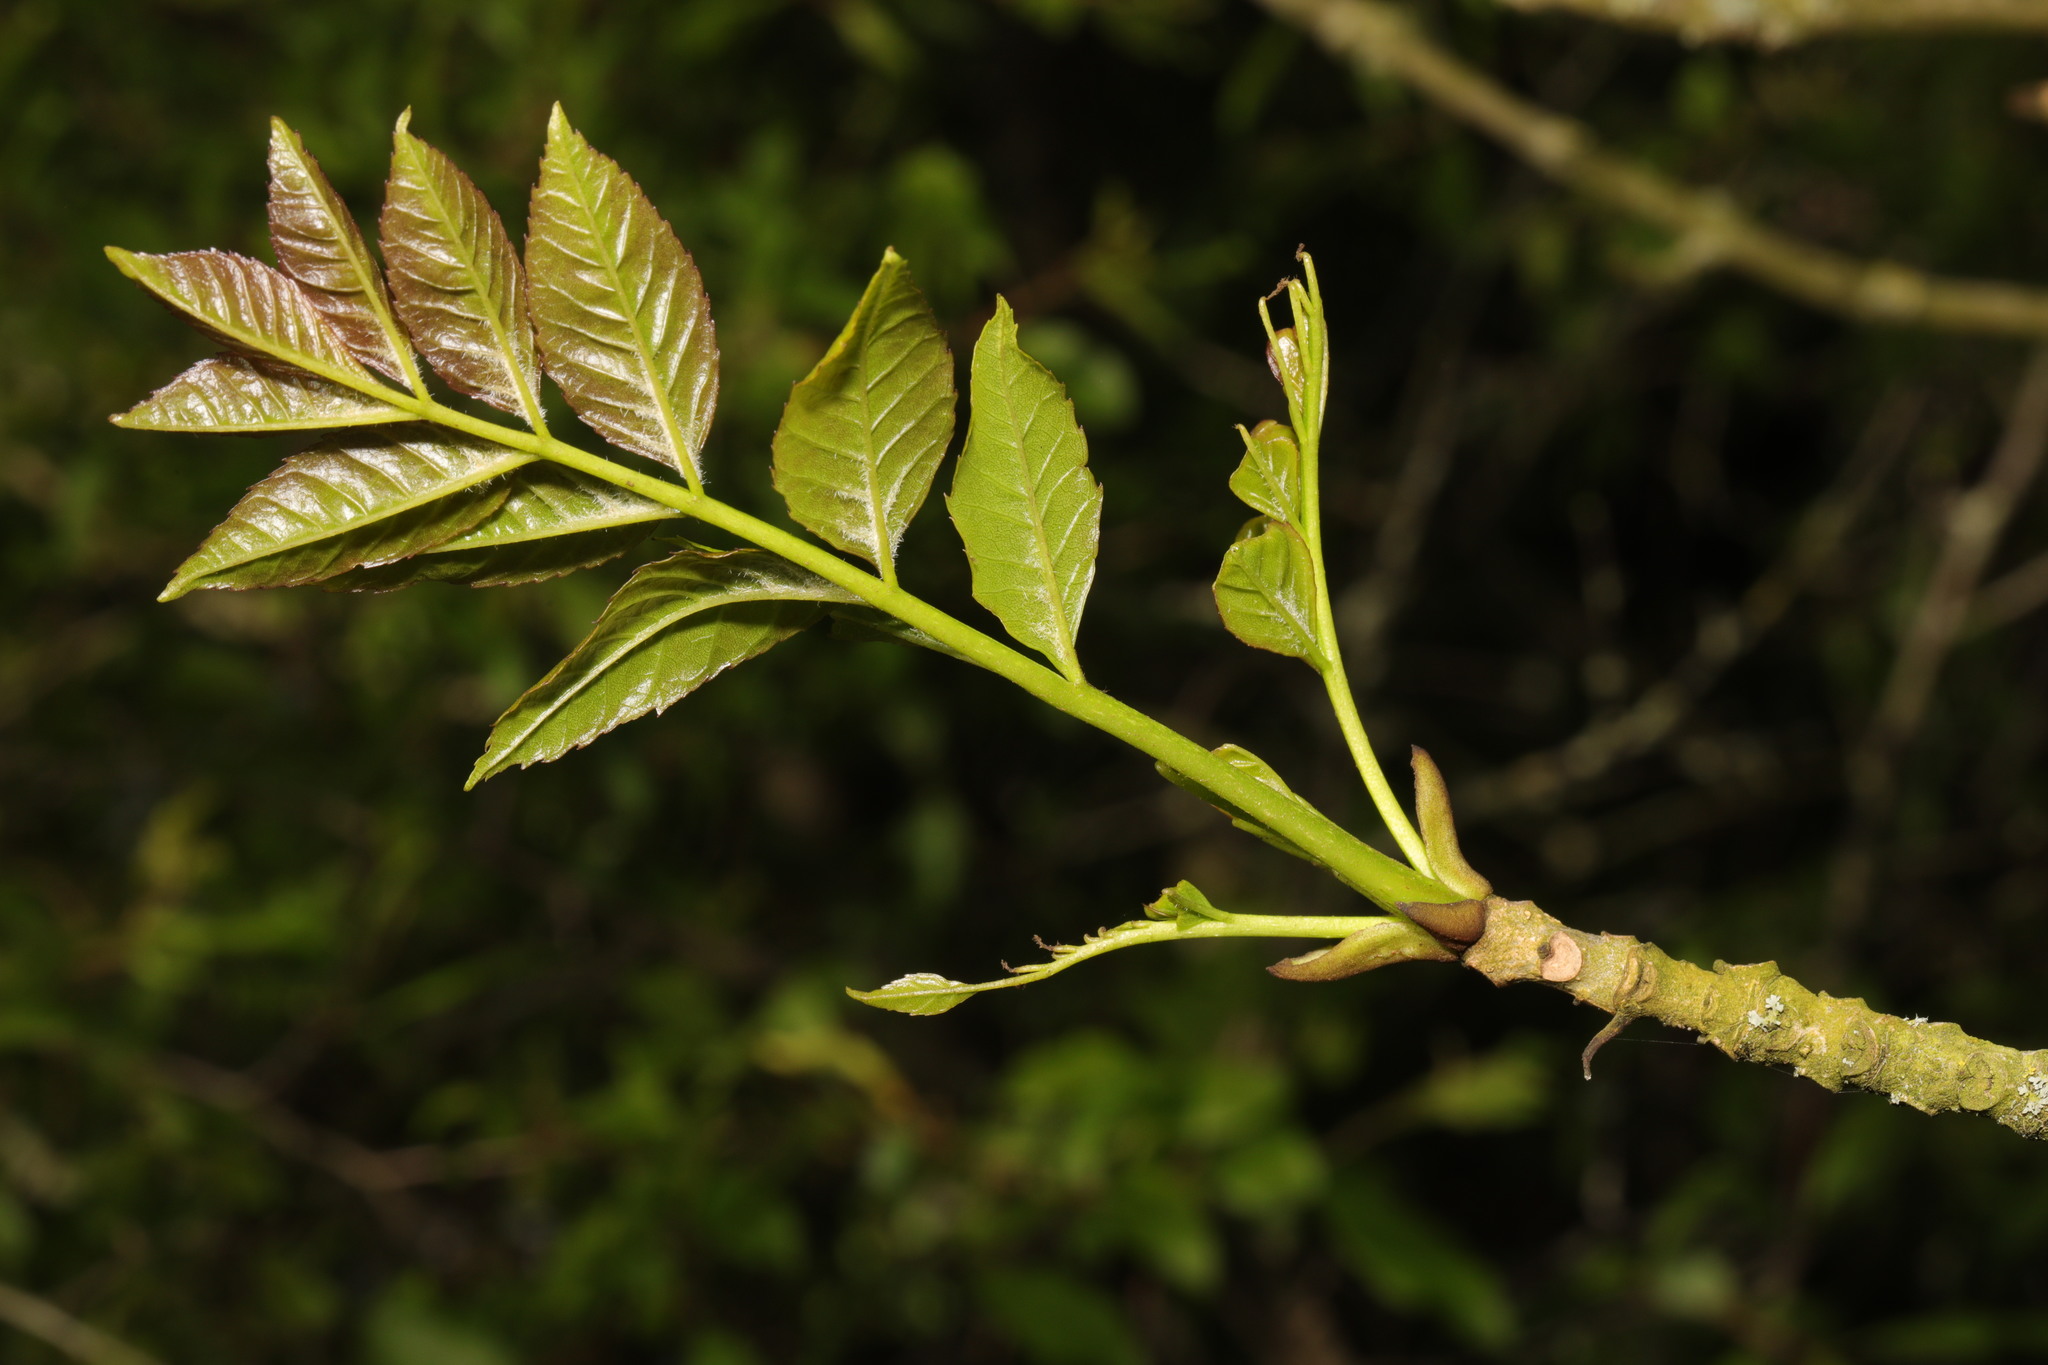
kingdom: Plantae
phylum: Tracheophyta
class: Magnoliopsida
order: Lamiales
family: Oleaceae
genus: Fraxinus
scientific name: Fraxinus excelsior
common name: European ash
